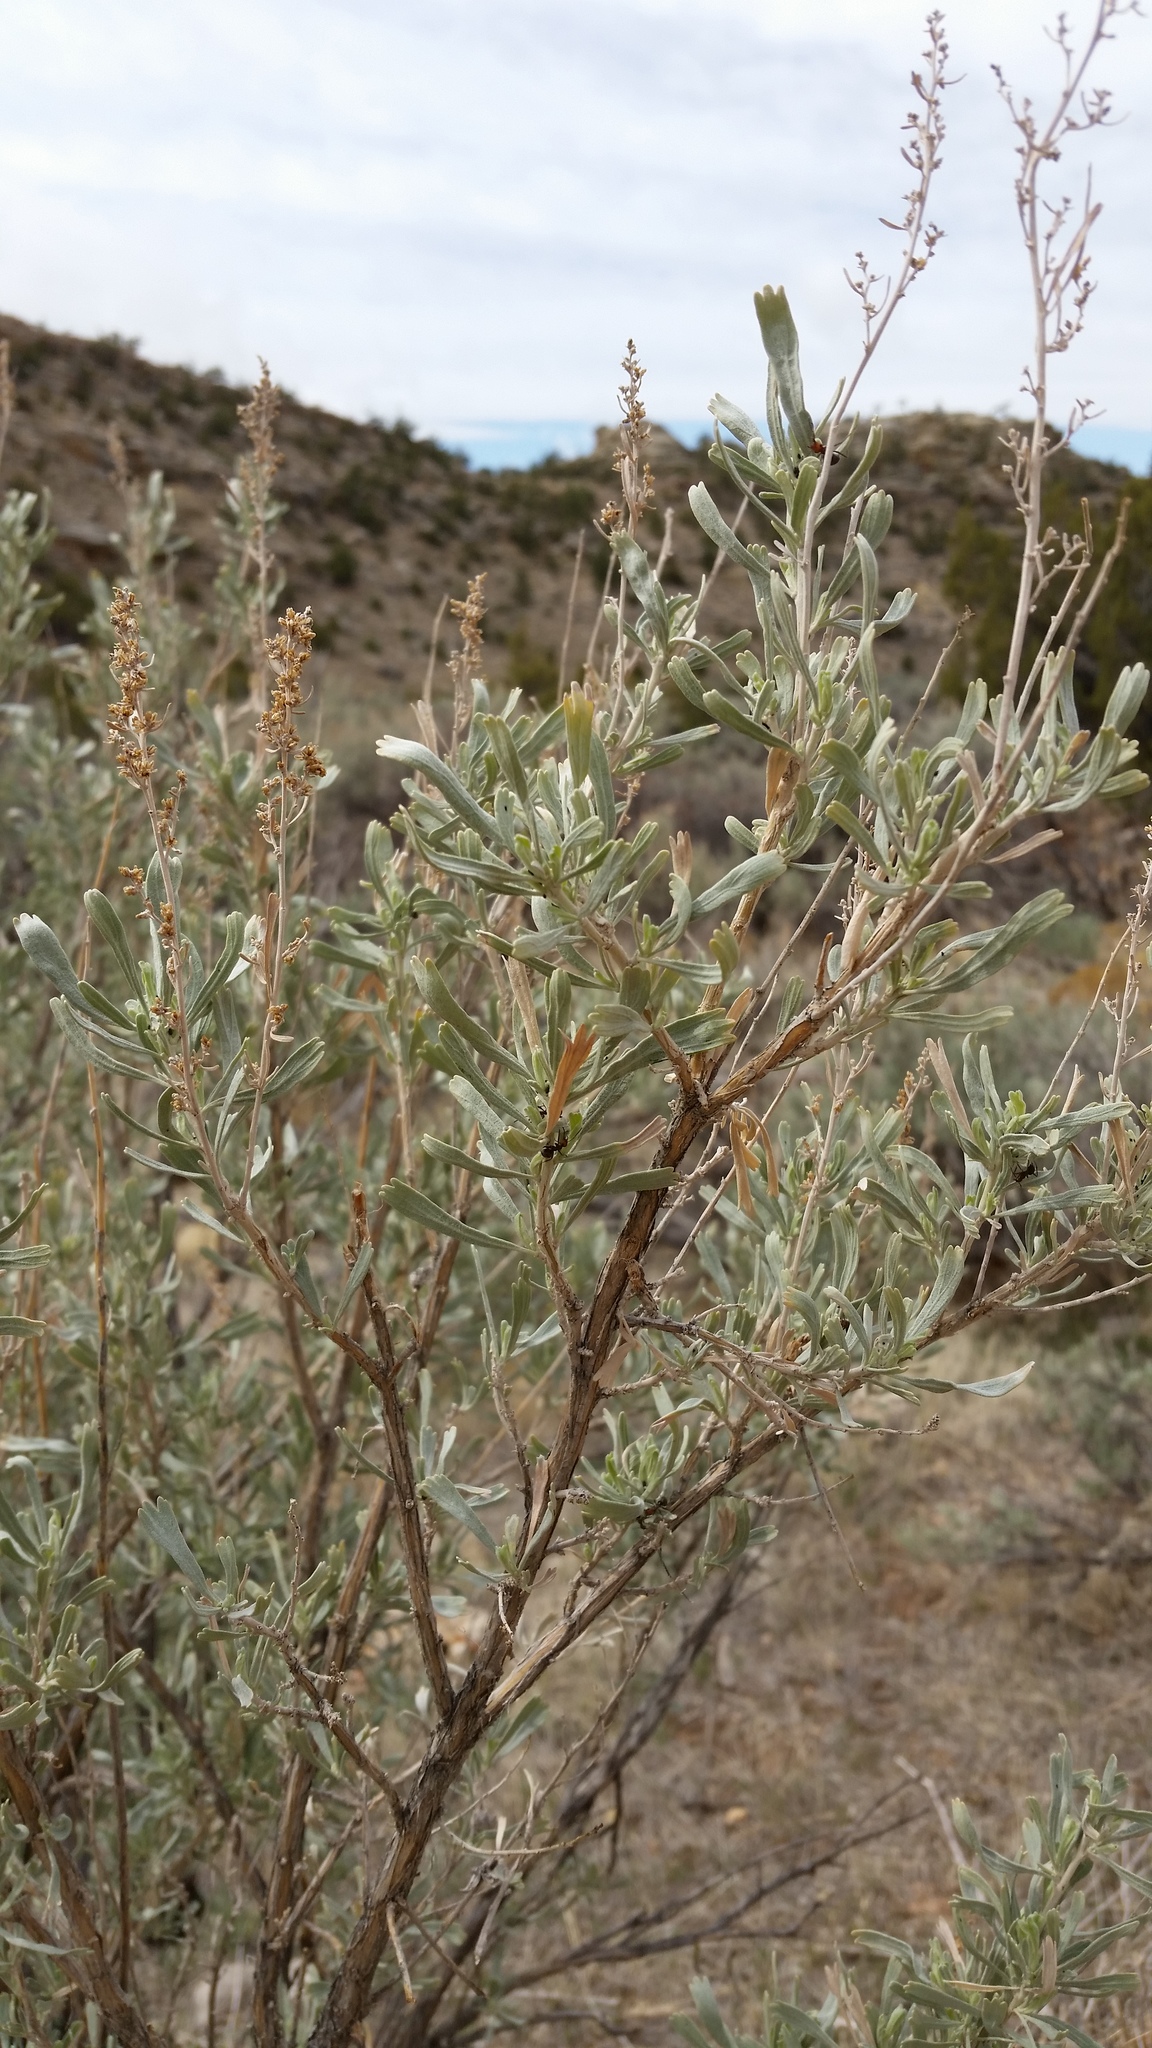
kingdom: Plantae
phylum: Tracheophyta
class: Magnoliopsida
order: Asterales
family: Asteraceae
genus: Artemisia
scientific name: Artemisia tridentata
